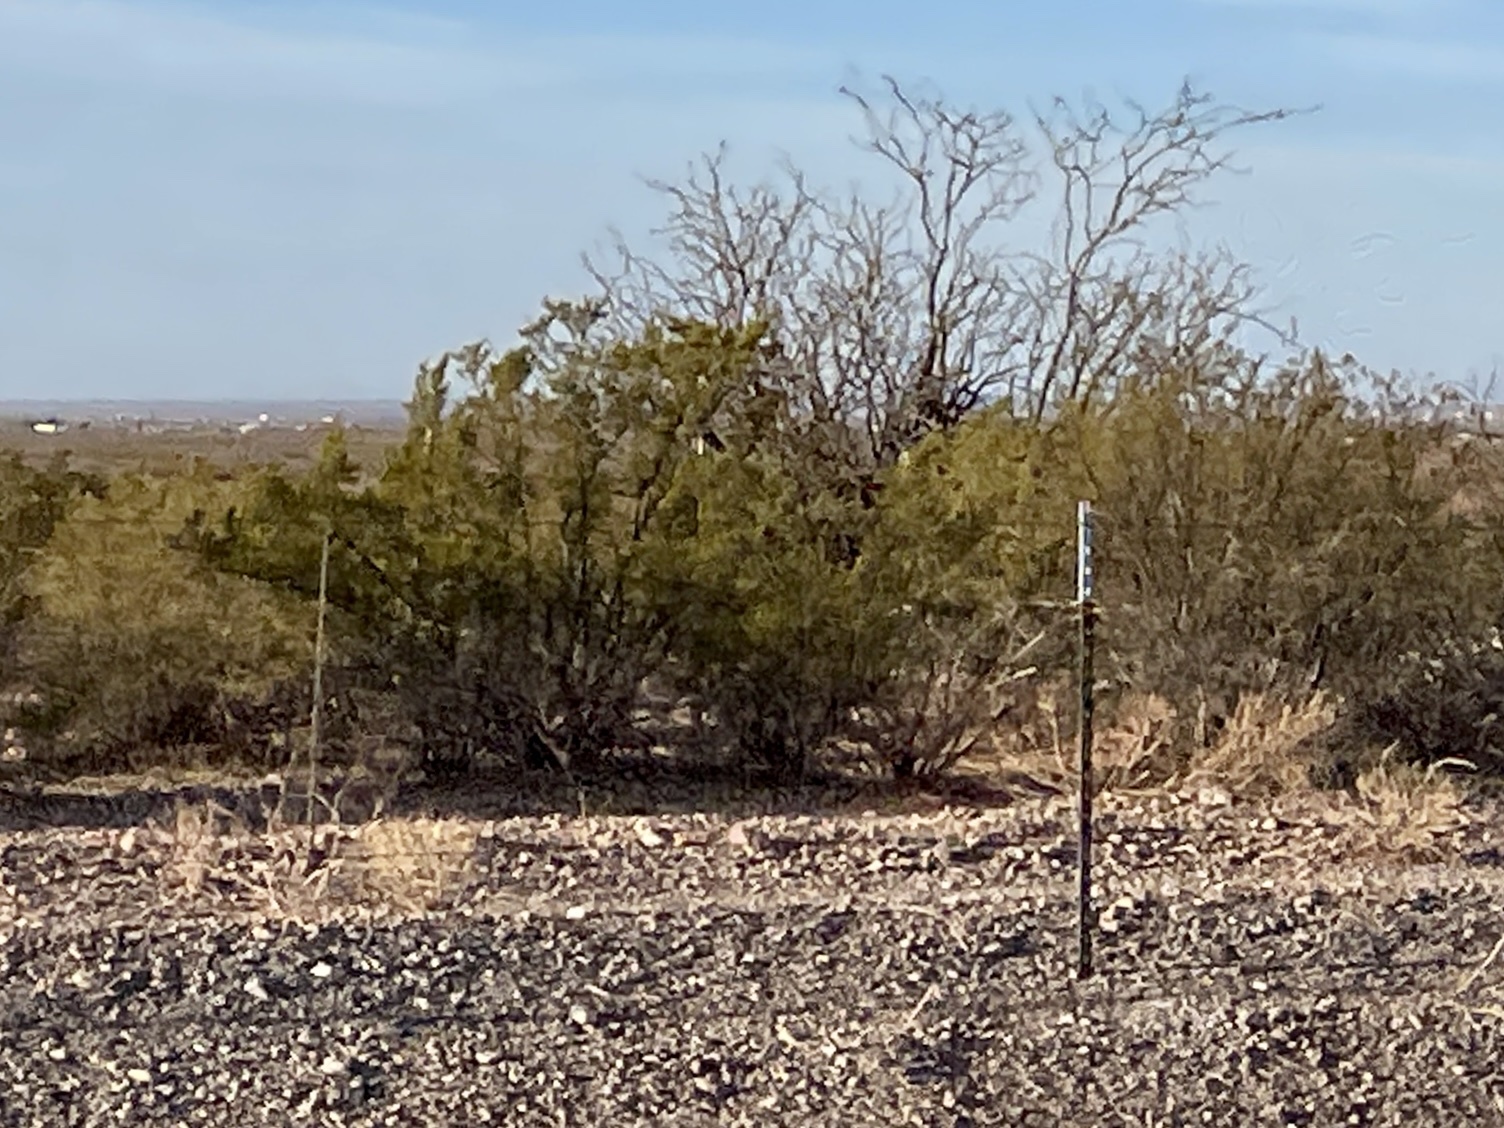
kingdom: Plantae
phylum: Tracheophyta
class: Magnoliopsida
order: Zygophyllales
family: Zygophyllaceae
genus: Larrea
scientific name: Larrea tridentata
